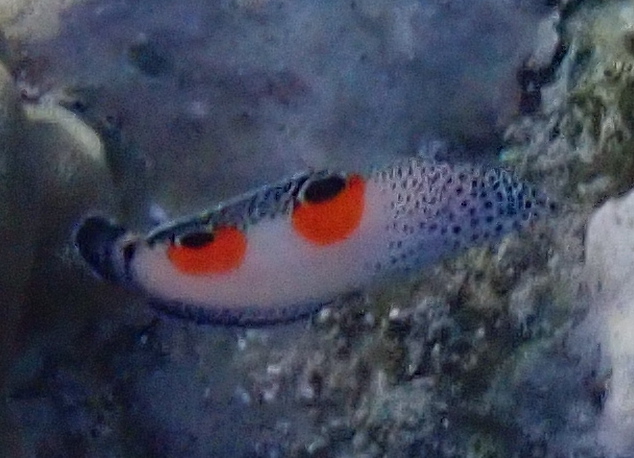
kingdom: Animalia
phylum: Chordata
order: Perciformes
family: Labridae
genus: Coris
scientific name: Coris aygula
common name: Clown coris
